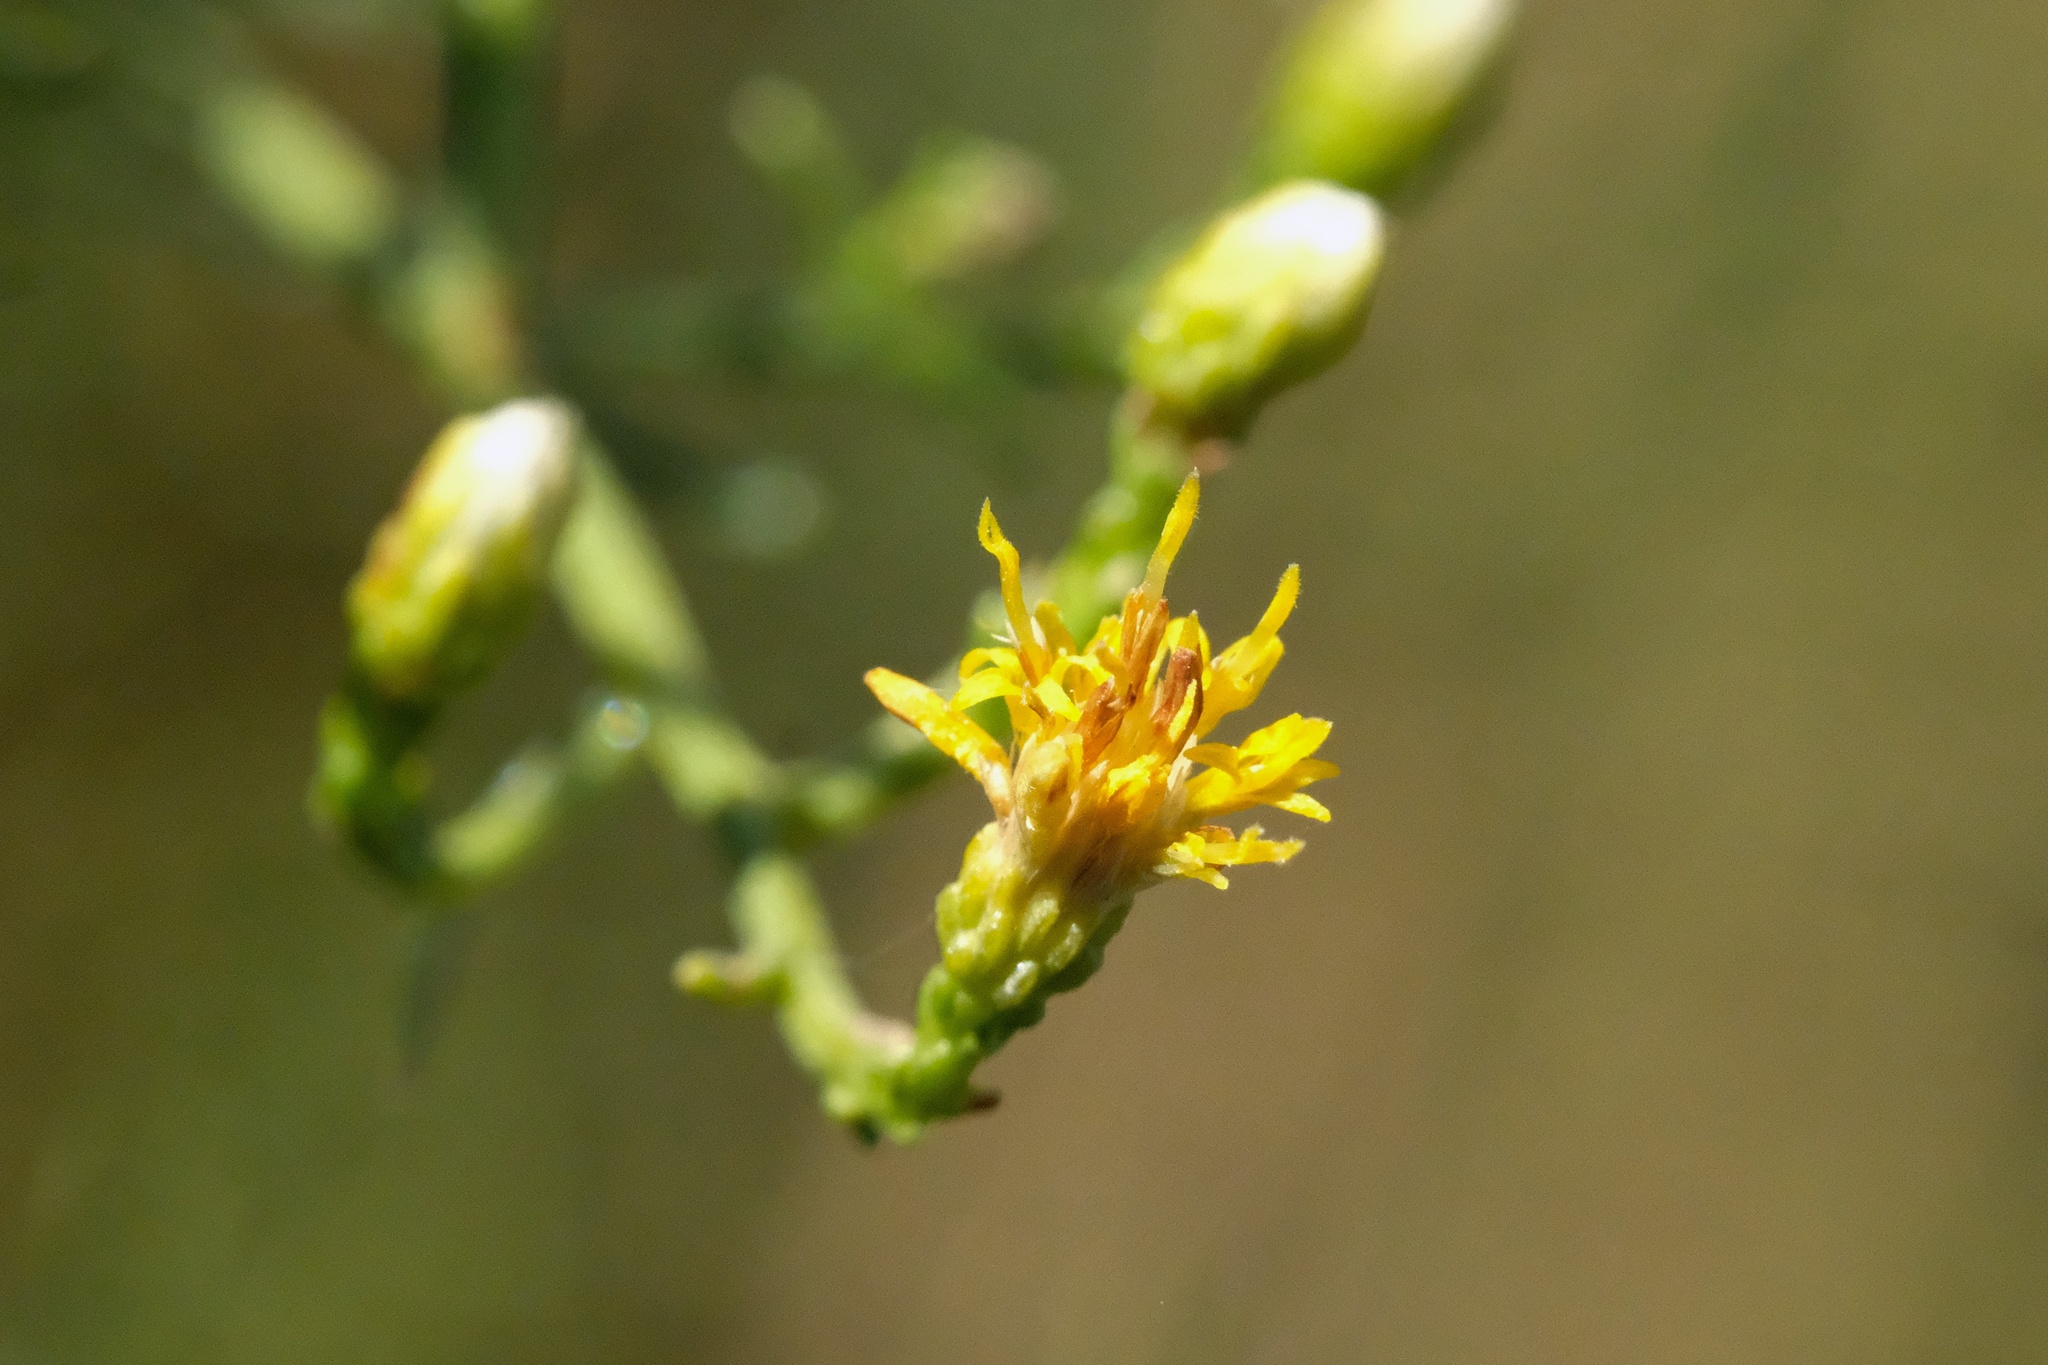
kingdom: Plantae
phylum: Tracheophyta
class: Magnoliopsida
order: Asterales
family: Asteraceae
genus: Ericameria
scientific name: Ericameria palmeri
